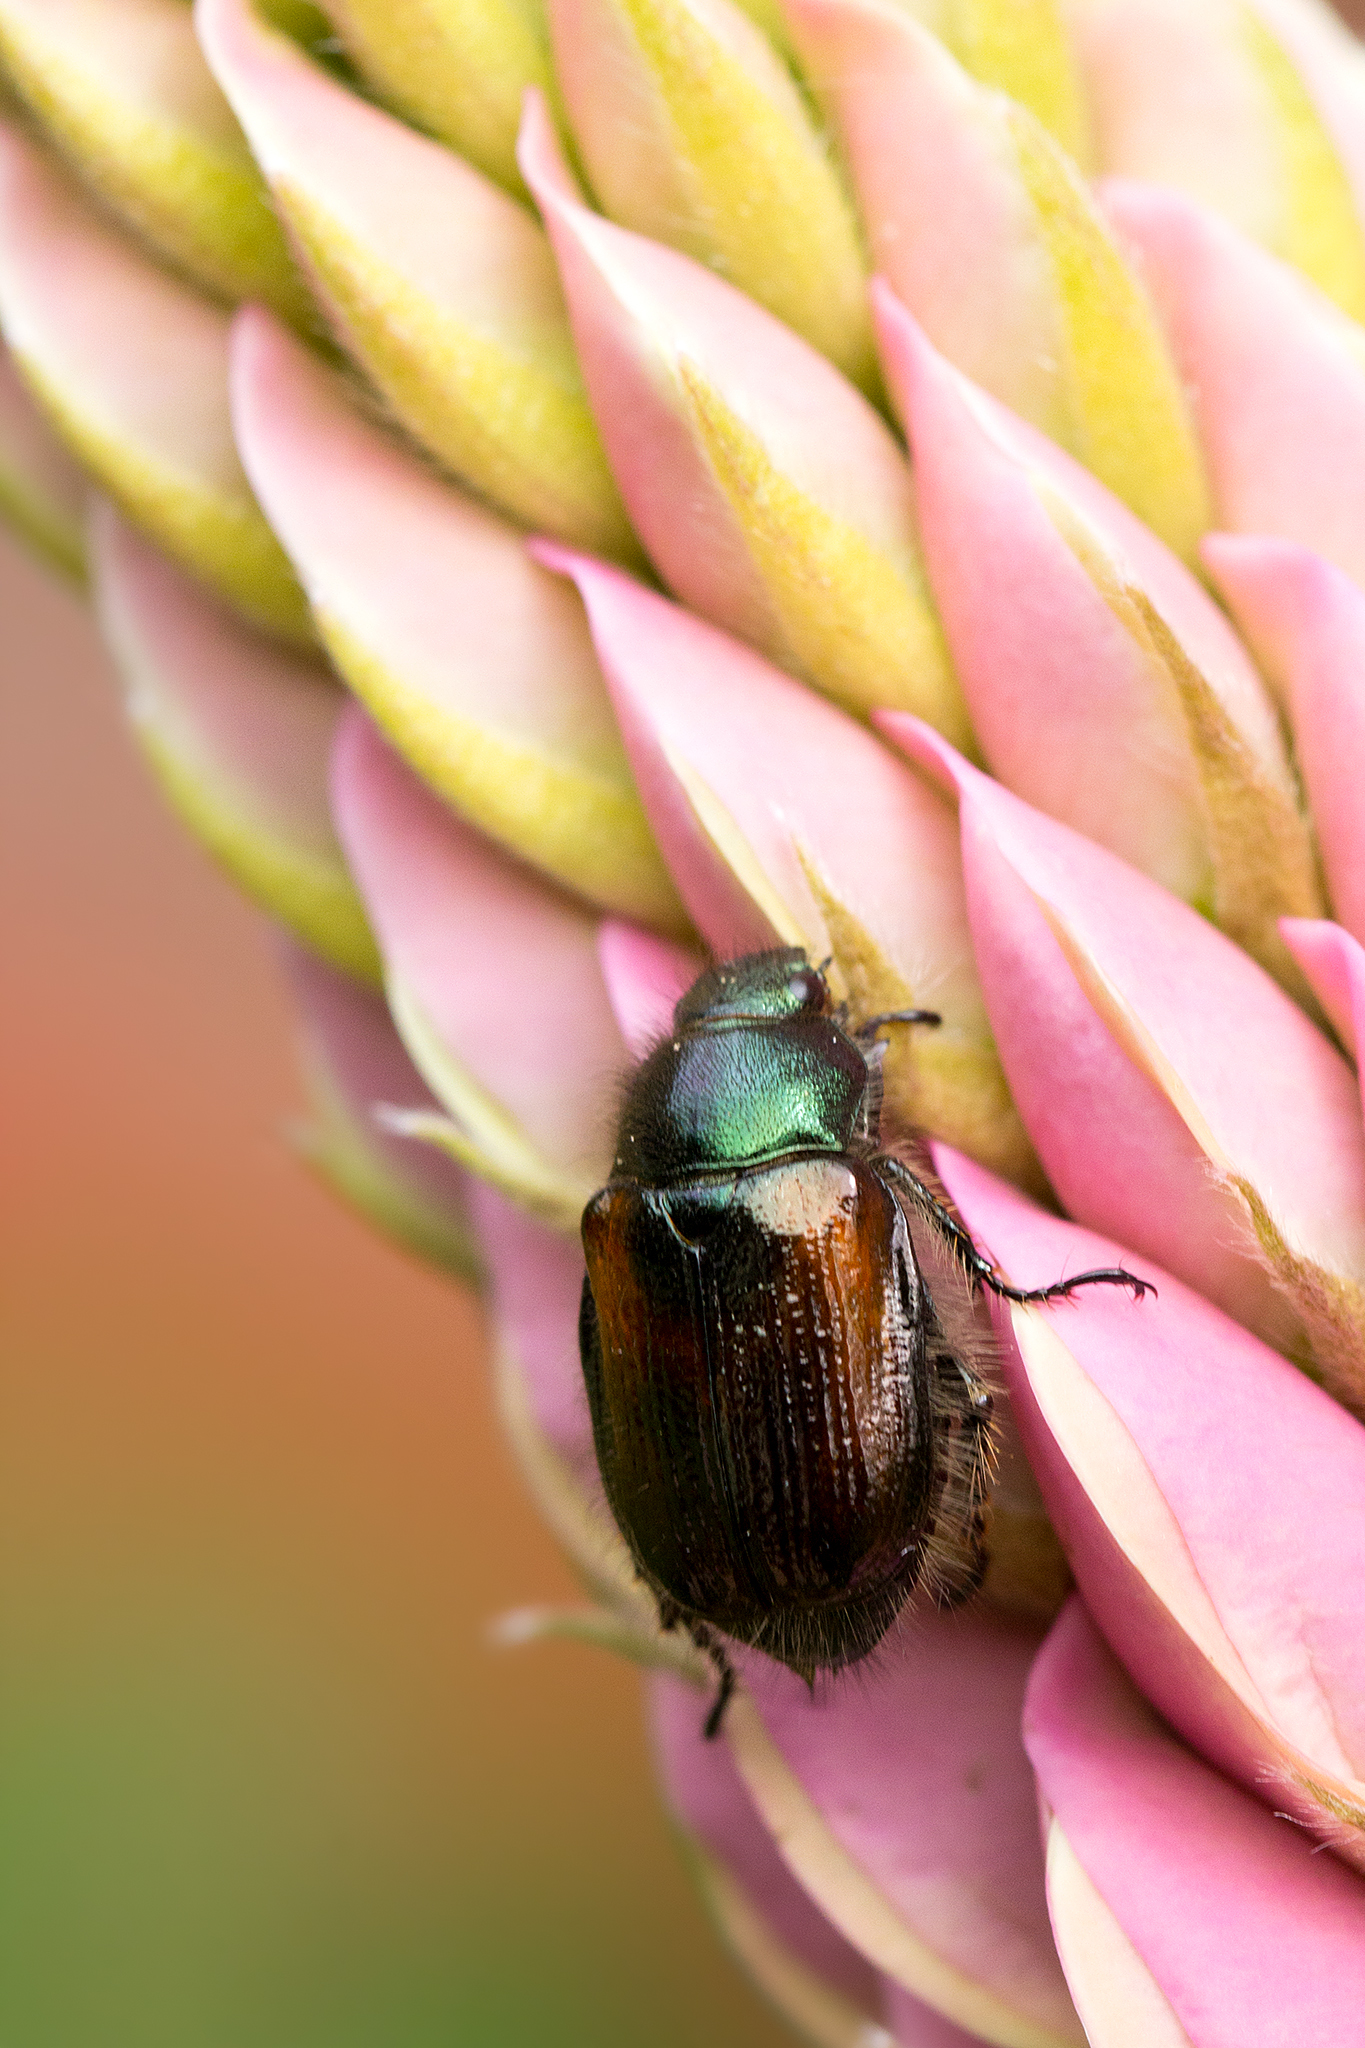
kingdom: Animalia
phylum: Arthropoda
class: Insecta
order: Coleoptera
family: Scarabaeidae
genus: Phyllopertha
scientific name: Phyllopertha horticola
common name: Garden chafer
